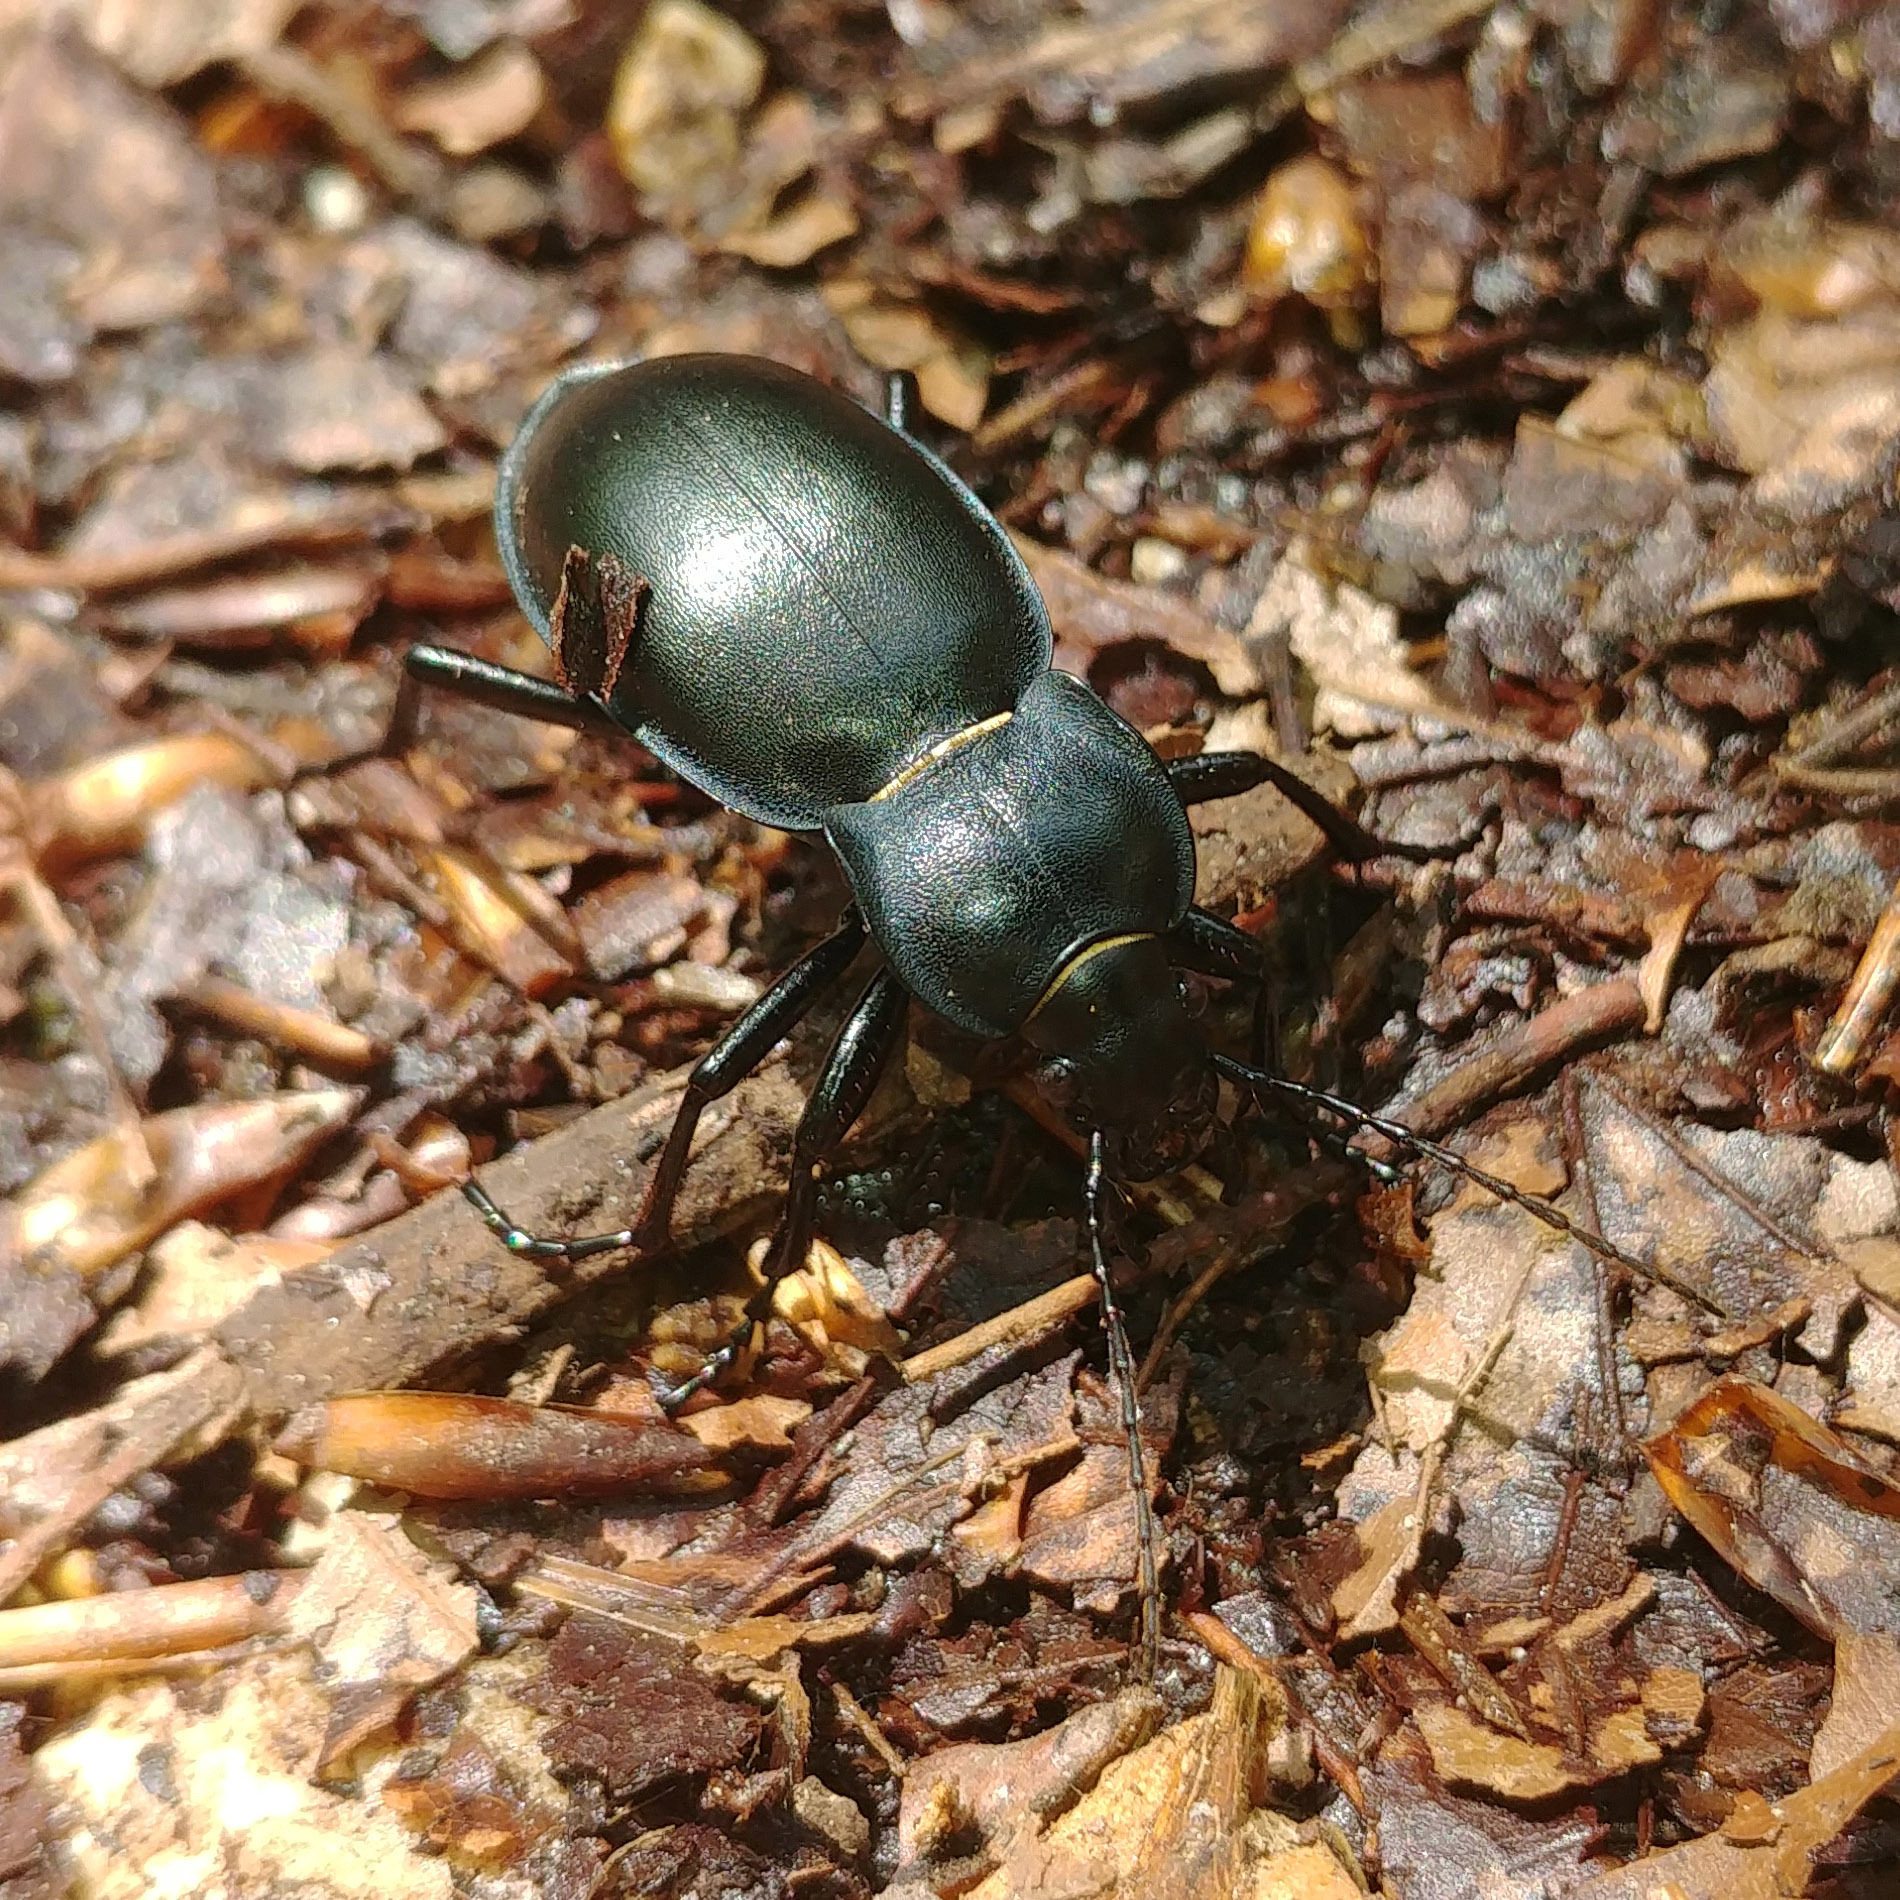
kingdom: Animalia
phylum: Arthropoda
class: Insecta
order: Coleoptera
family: Carabidae
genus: Carabus
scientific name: Carabus glabratus
